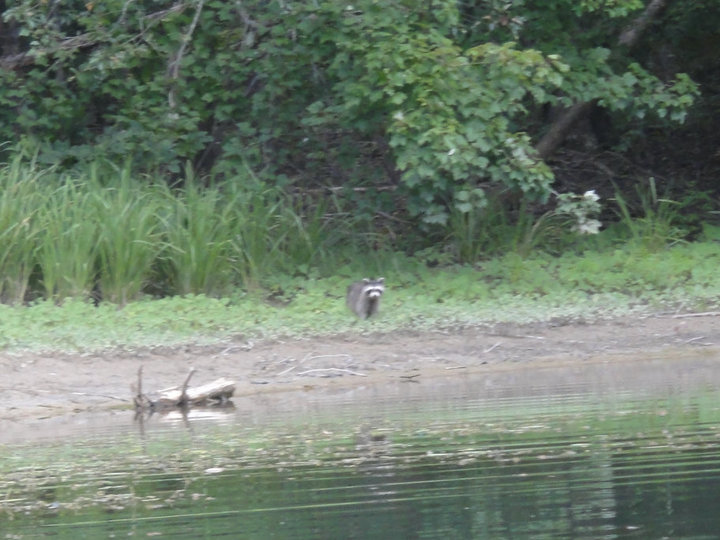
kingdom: Animalia
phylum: Chordata
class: Mammalia
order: Carnivora
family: Procyonidae
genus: Procyon
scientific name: Procyon lotor
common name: Raccoon
